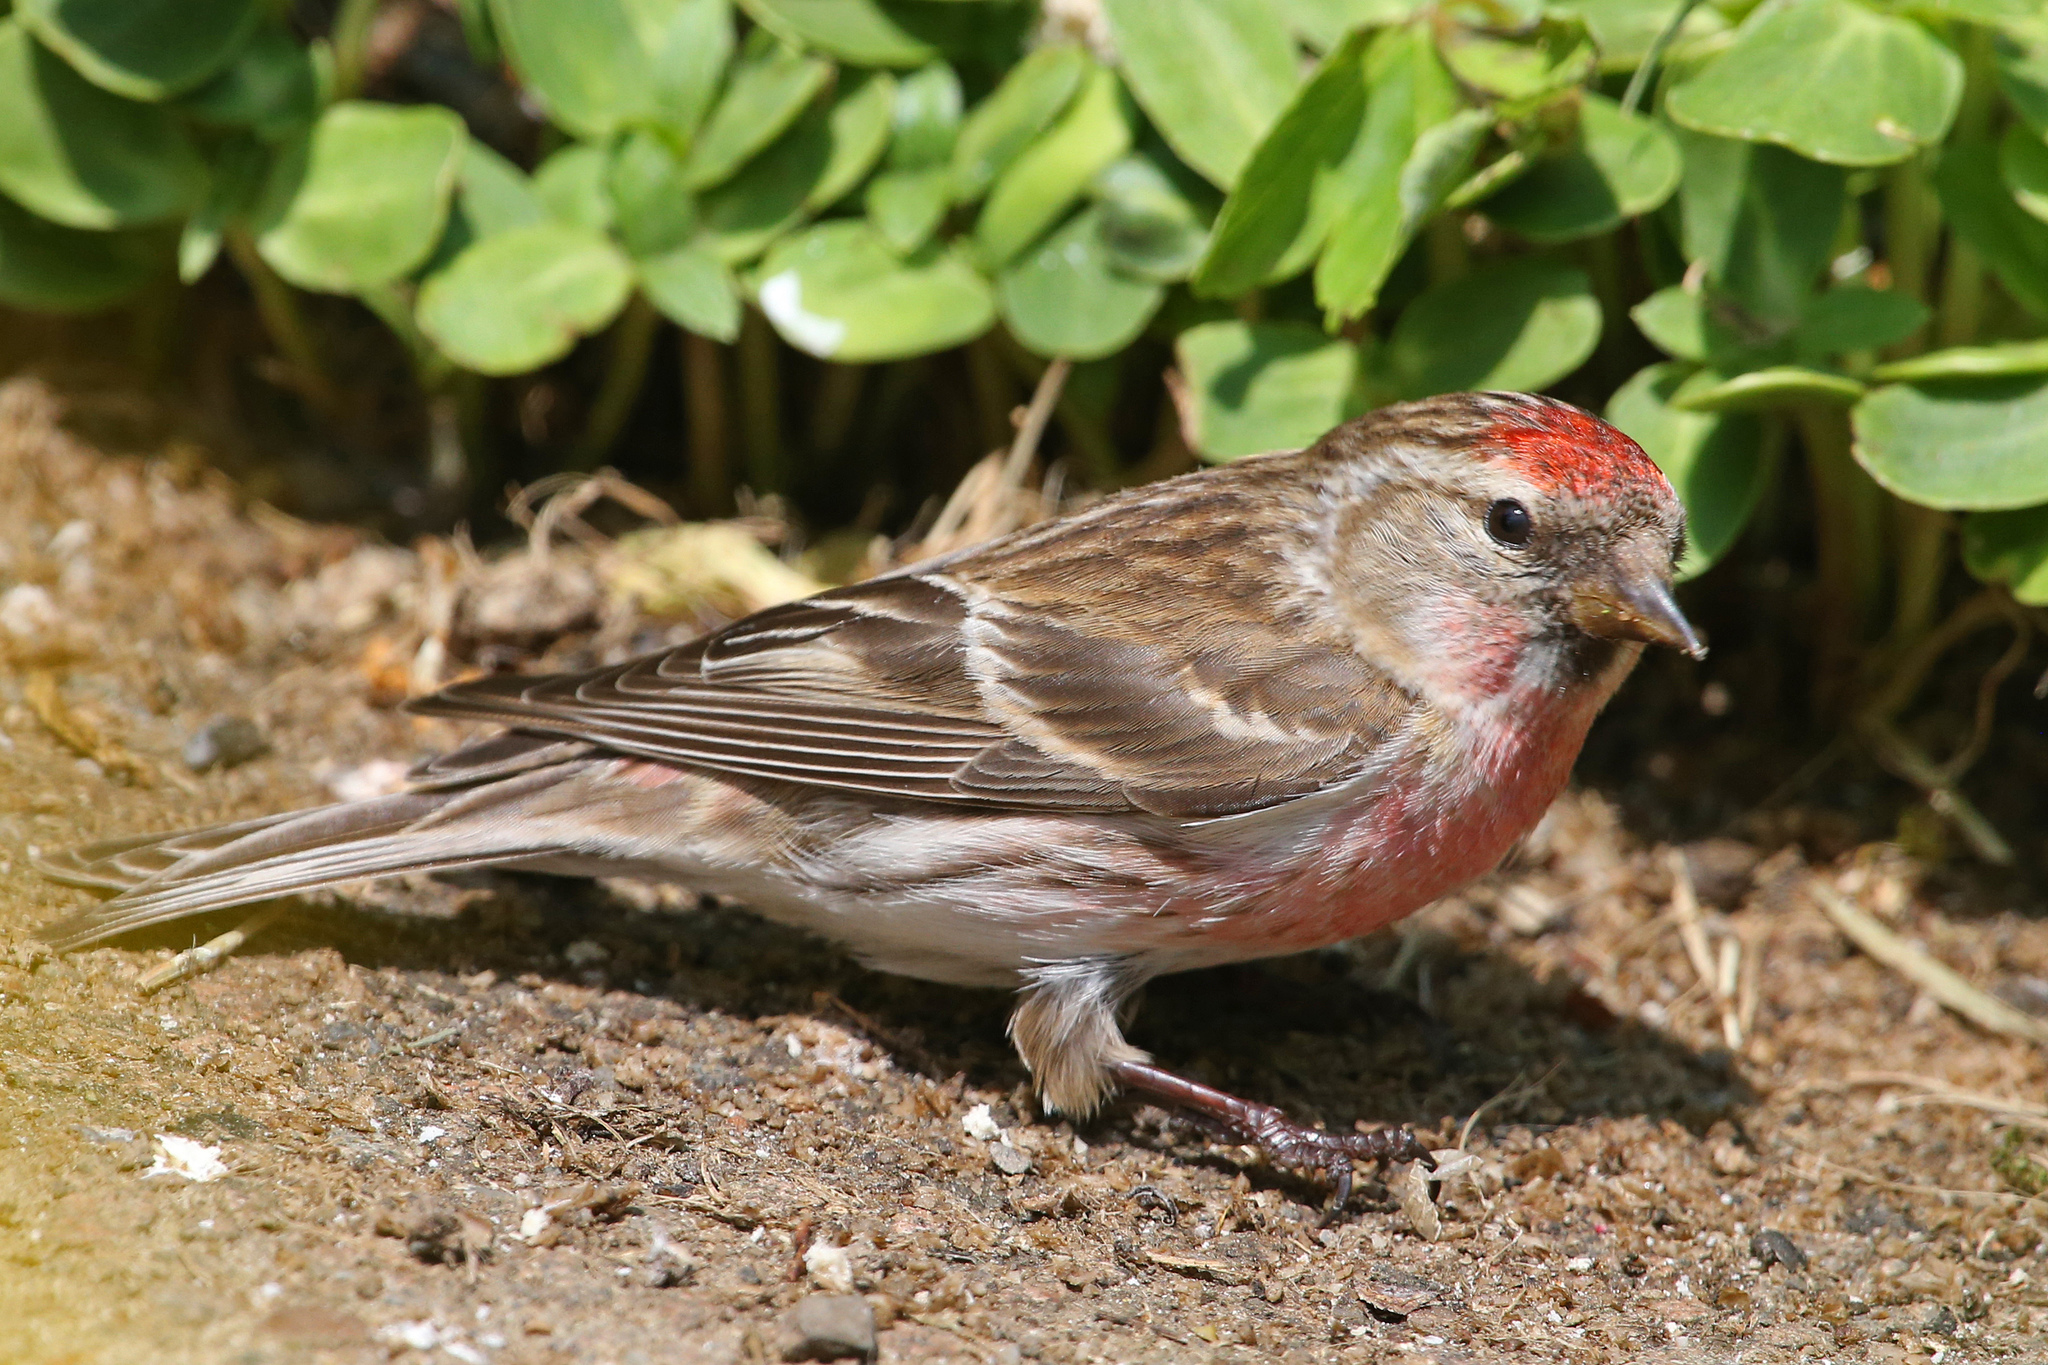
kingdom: Animalia
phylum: Chordata
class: Aves
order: Passeriformes
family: Fringillidae
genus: Acanthis
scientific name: Acanthis flammea
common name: Common redpoll
